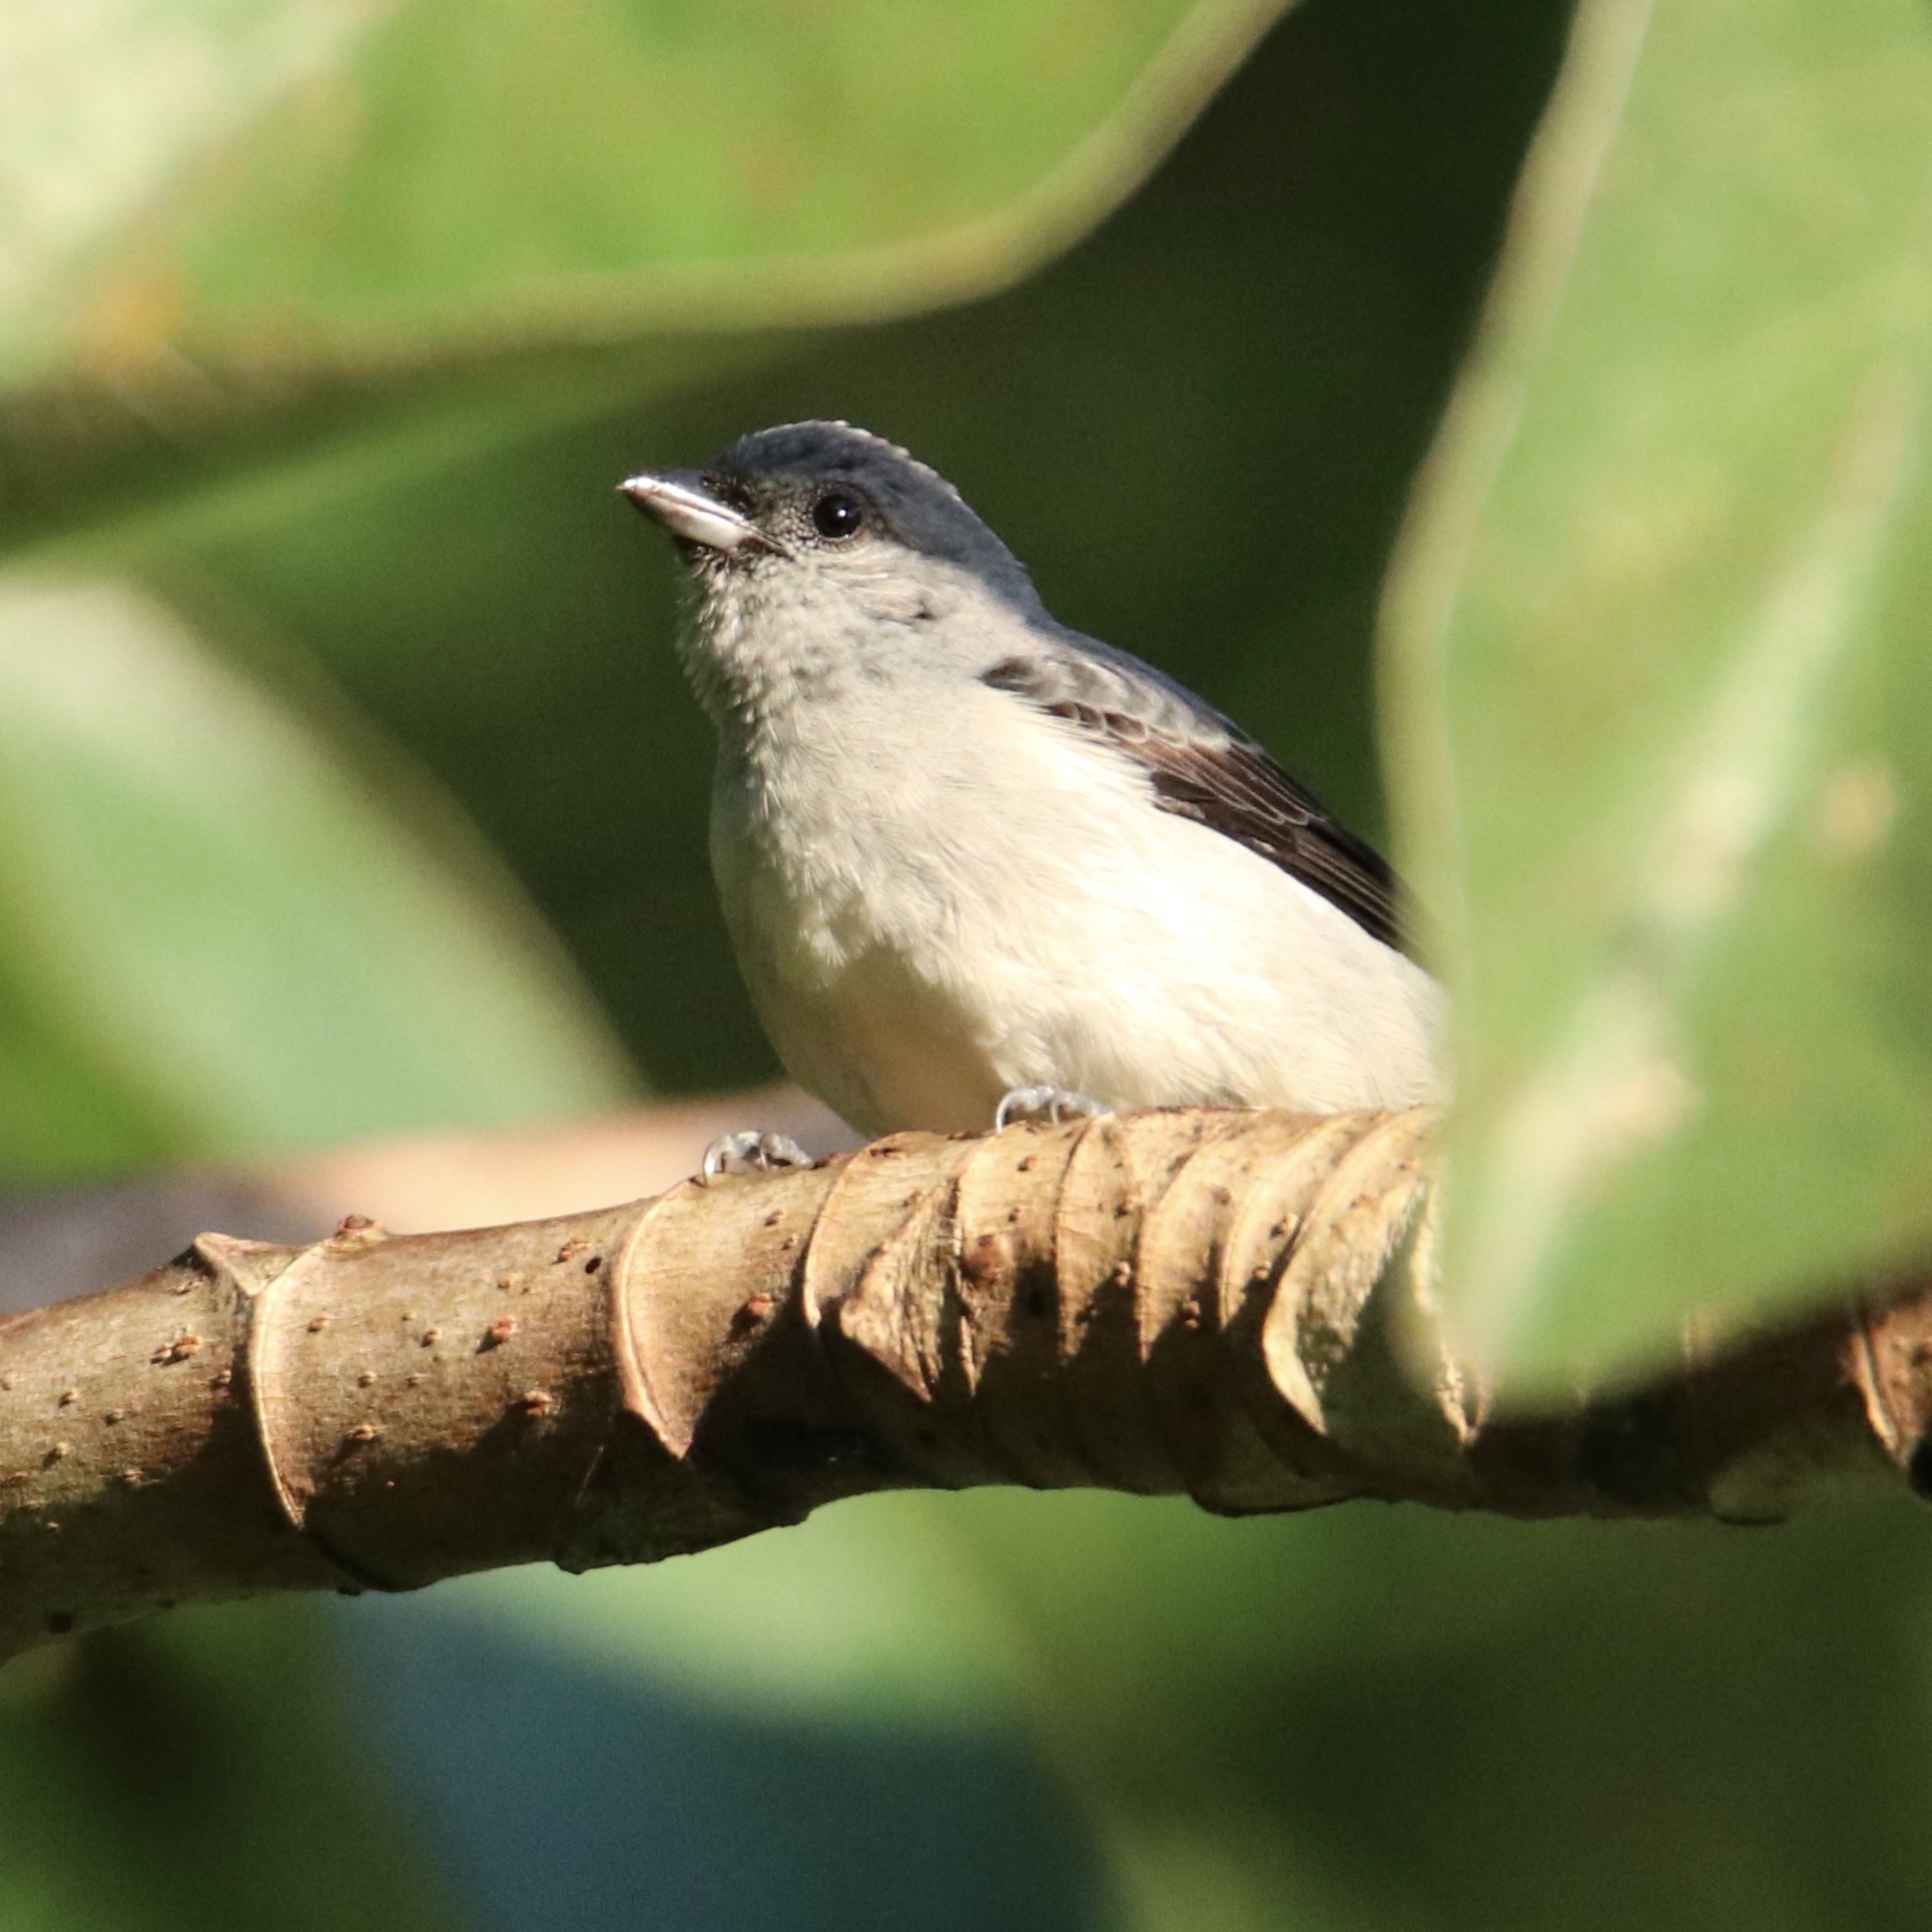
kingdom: Animalia
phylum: Chordata
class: Aves
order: Passeriformes
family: Thraupidae
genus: Tangara
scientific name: Tangara inornata
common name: Plain-colored tanager
